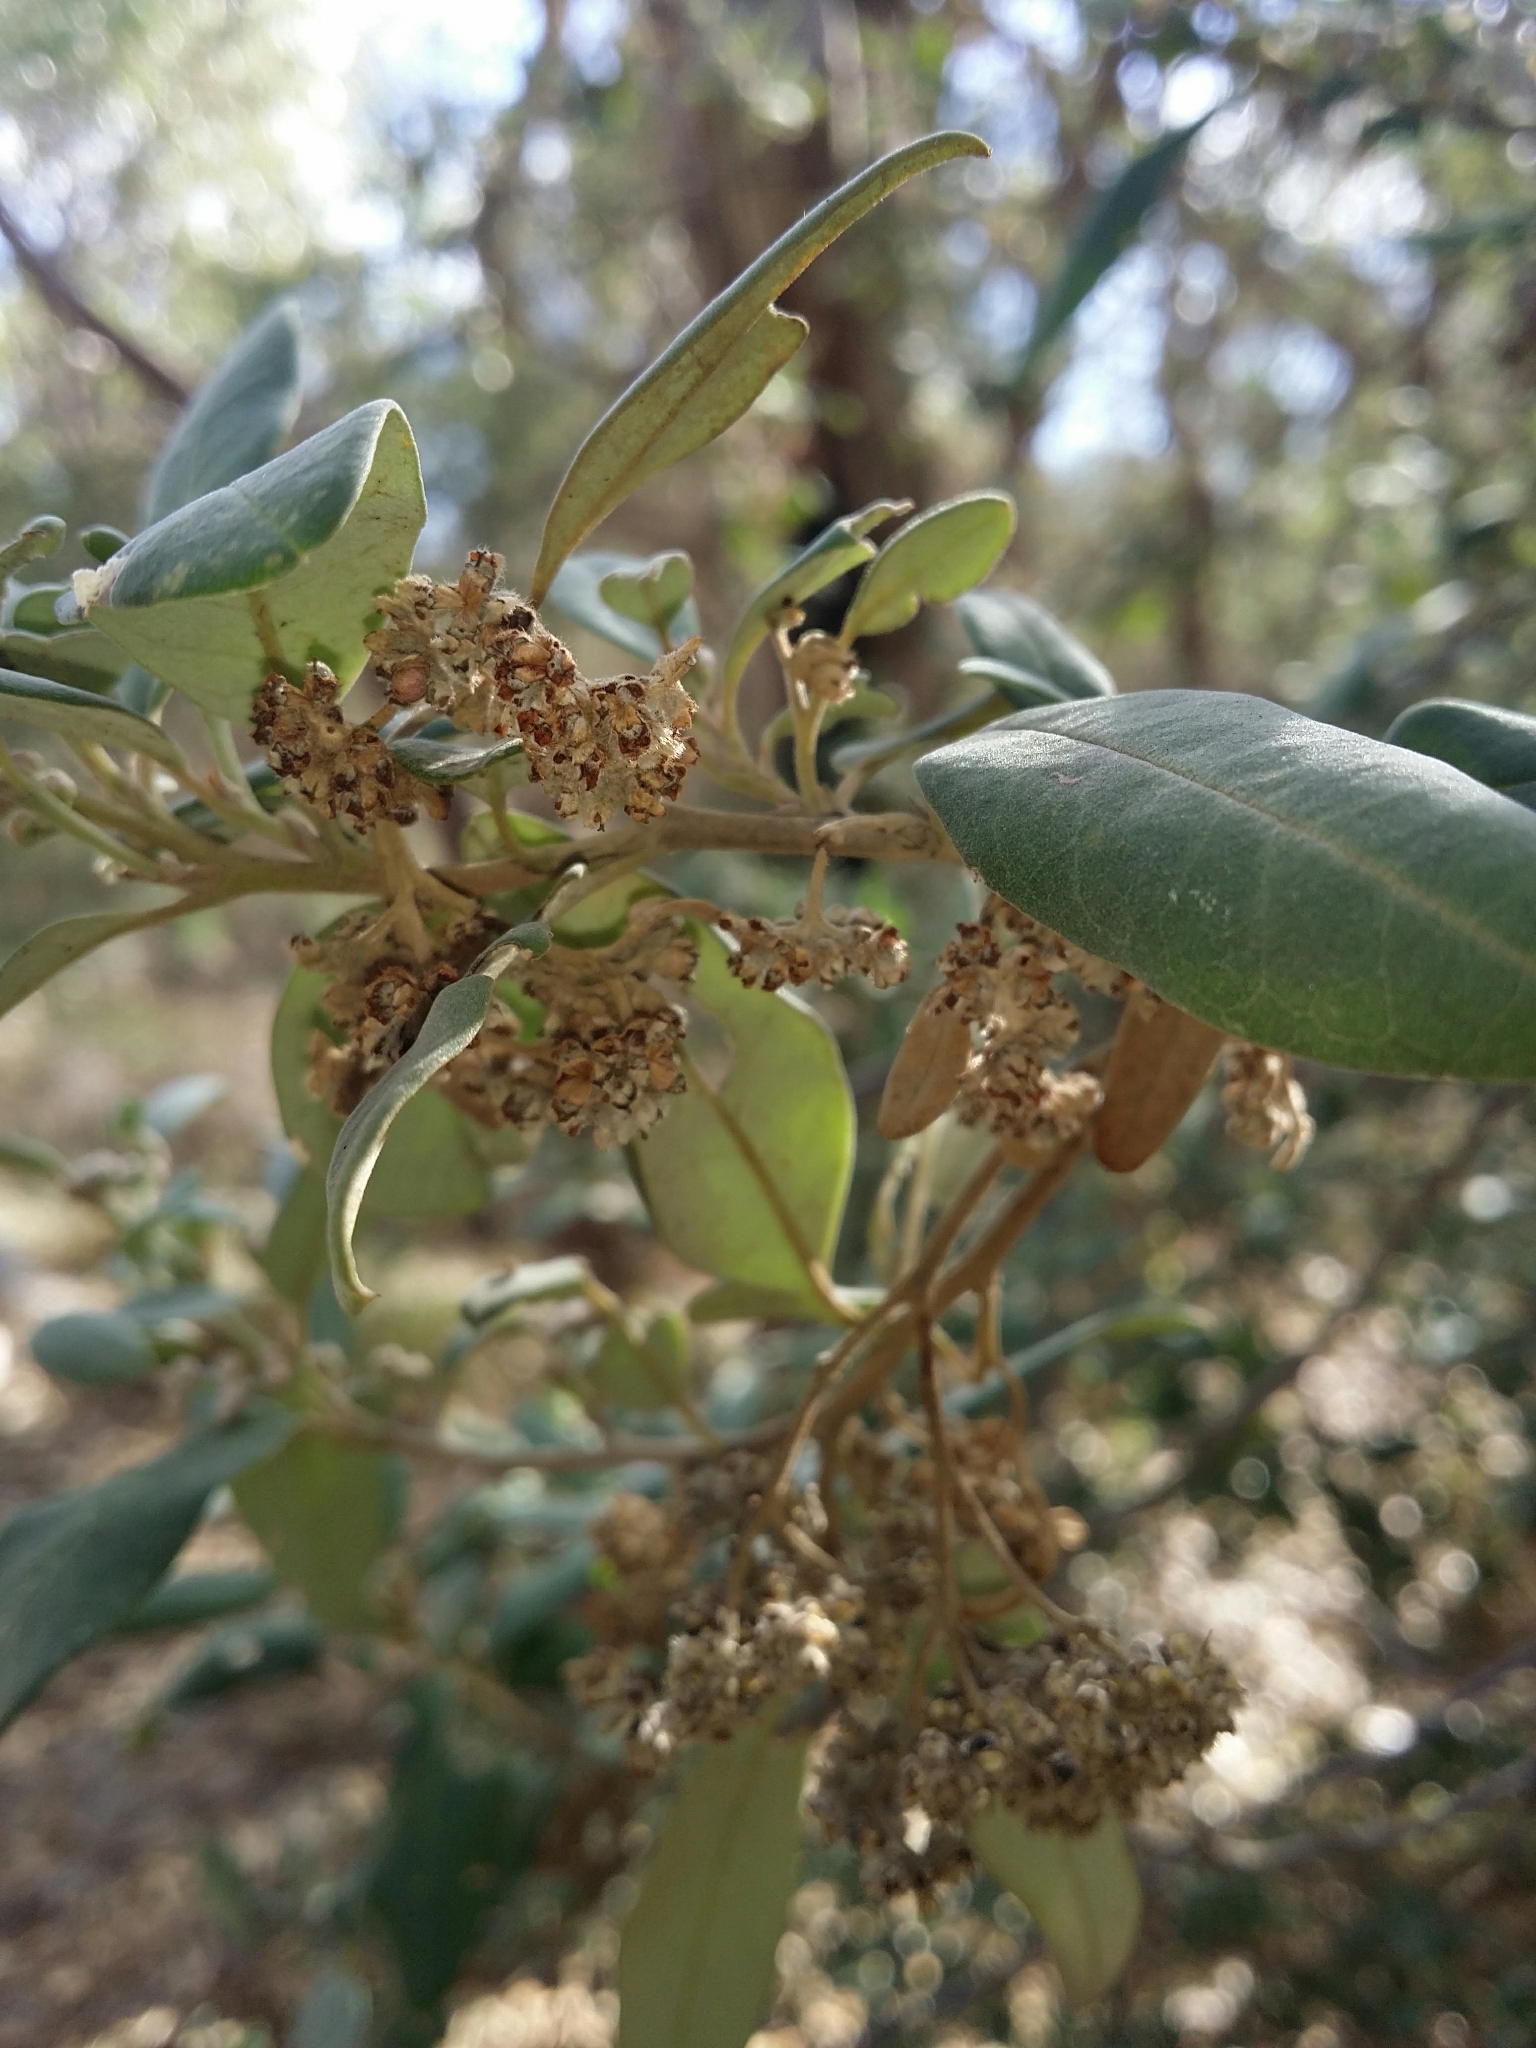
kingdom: Plantae
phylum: Tracheophyta
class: Magnoliopsida
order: Rosales
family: Rhamnaceae
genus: Spyridium
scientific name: Spyridium globulosum
